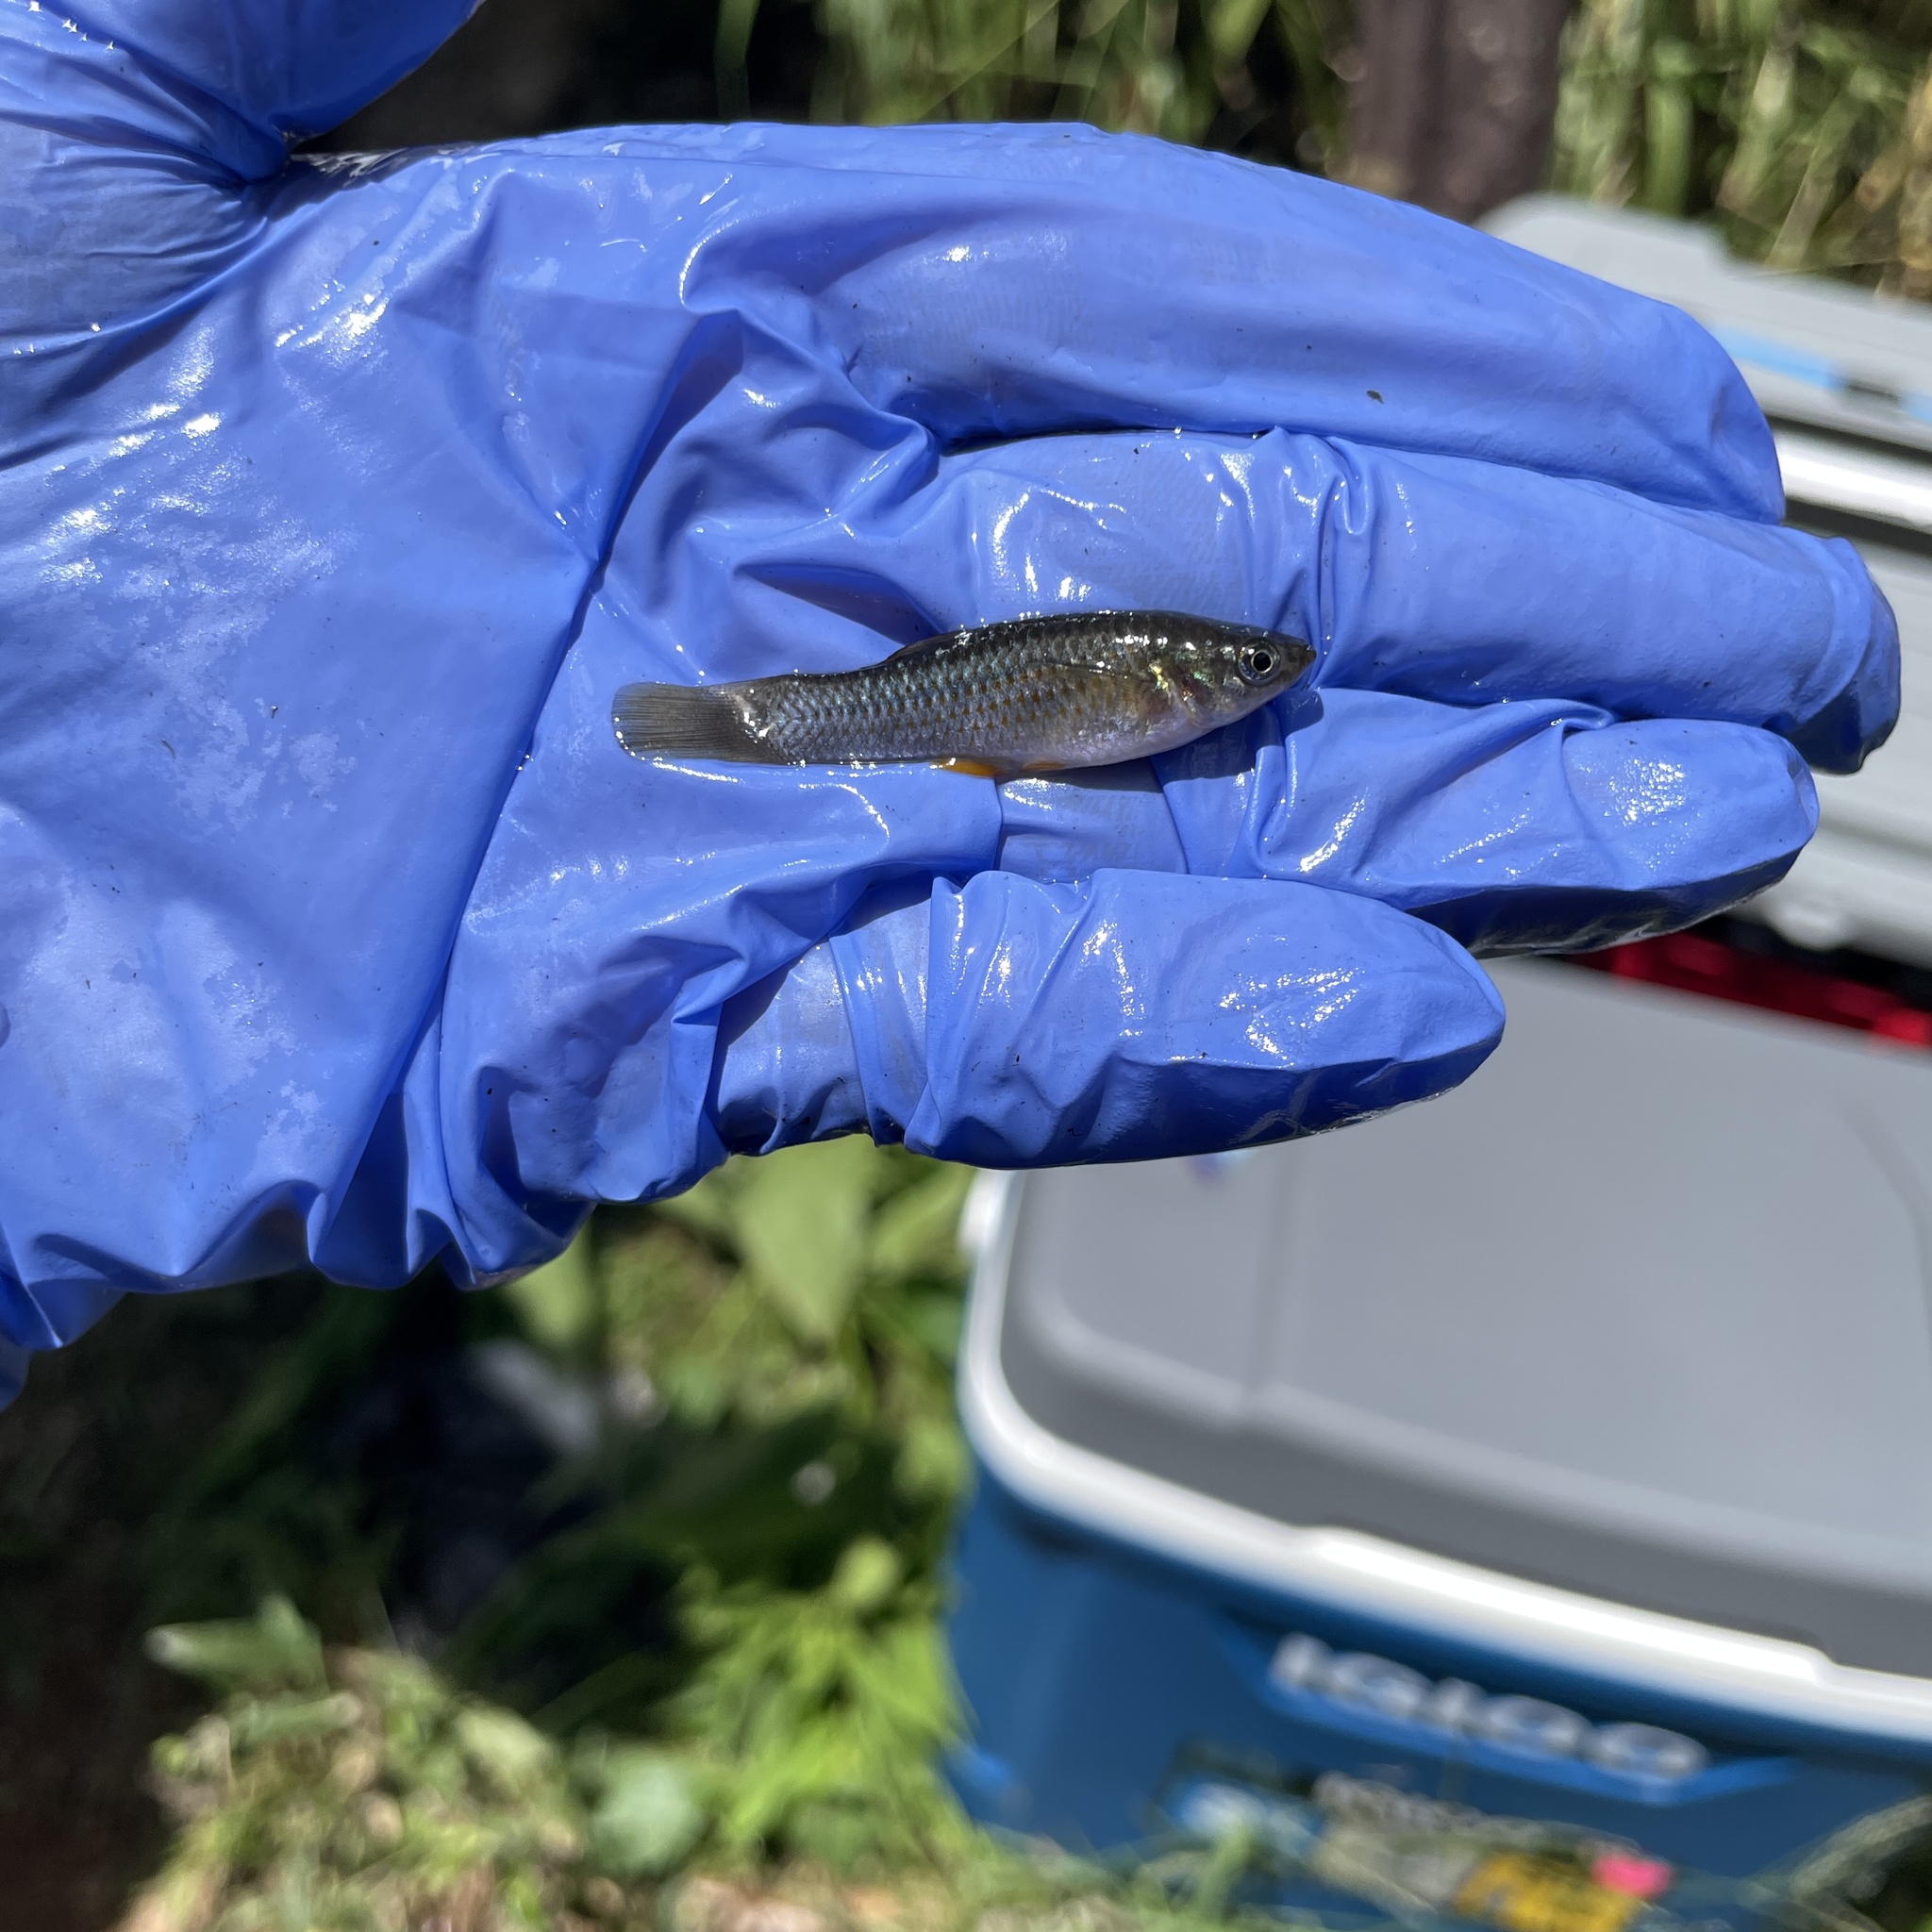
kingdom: Animalia
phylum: Chordata
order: Cyprinodontiformes
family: Poeciliidae
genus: Poecilia
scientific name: Poecilia sphenops
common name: Molly
